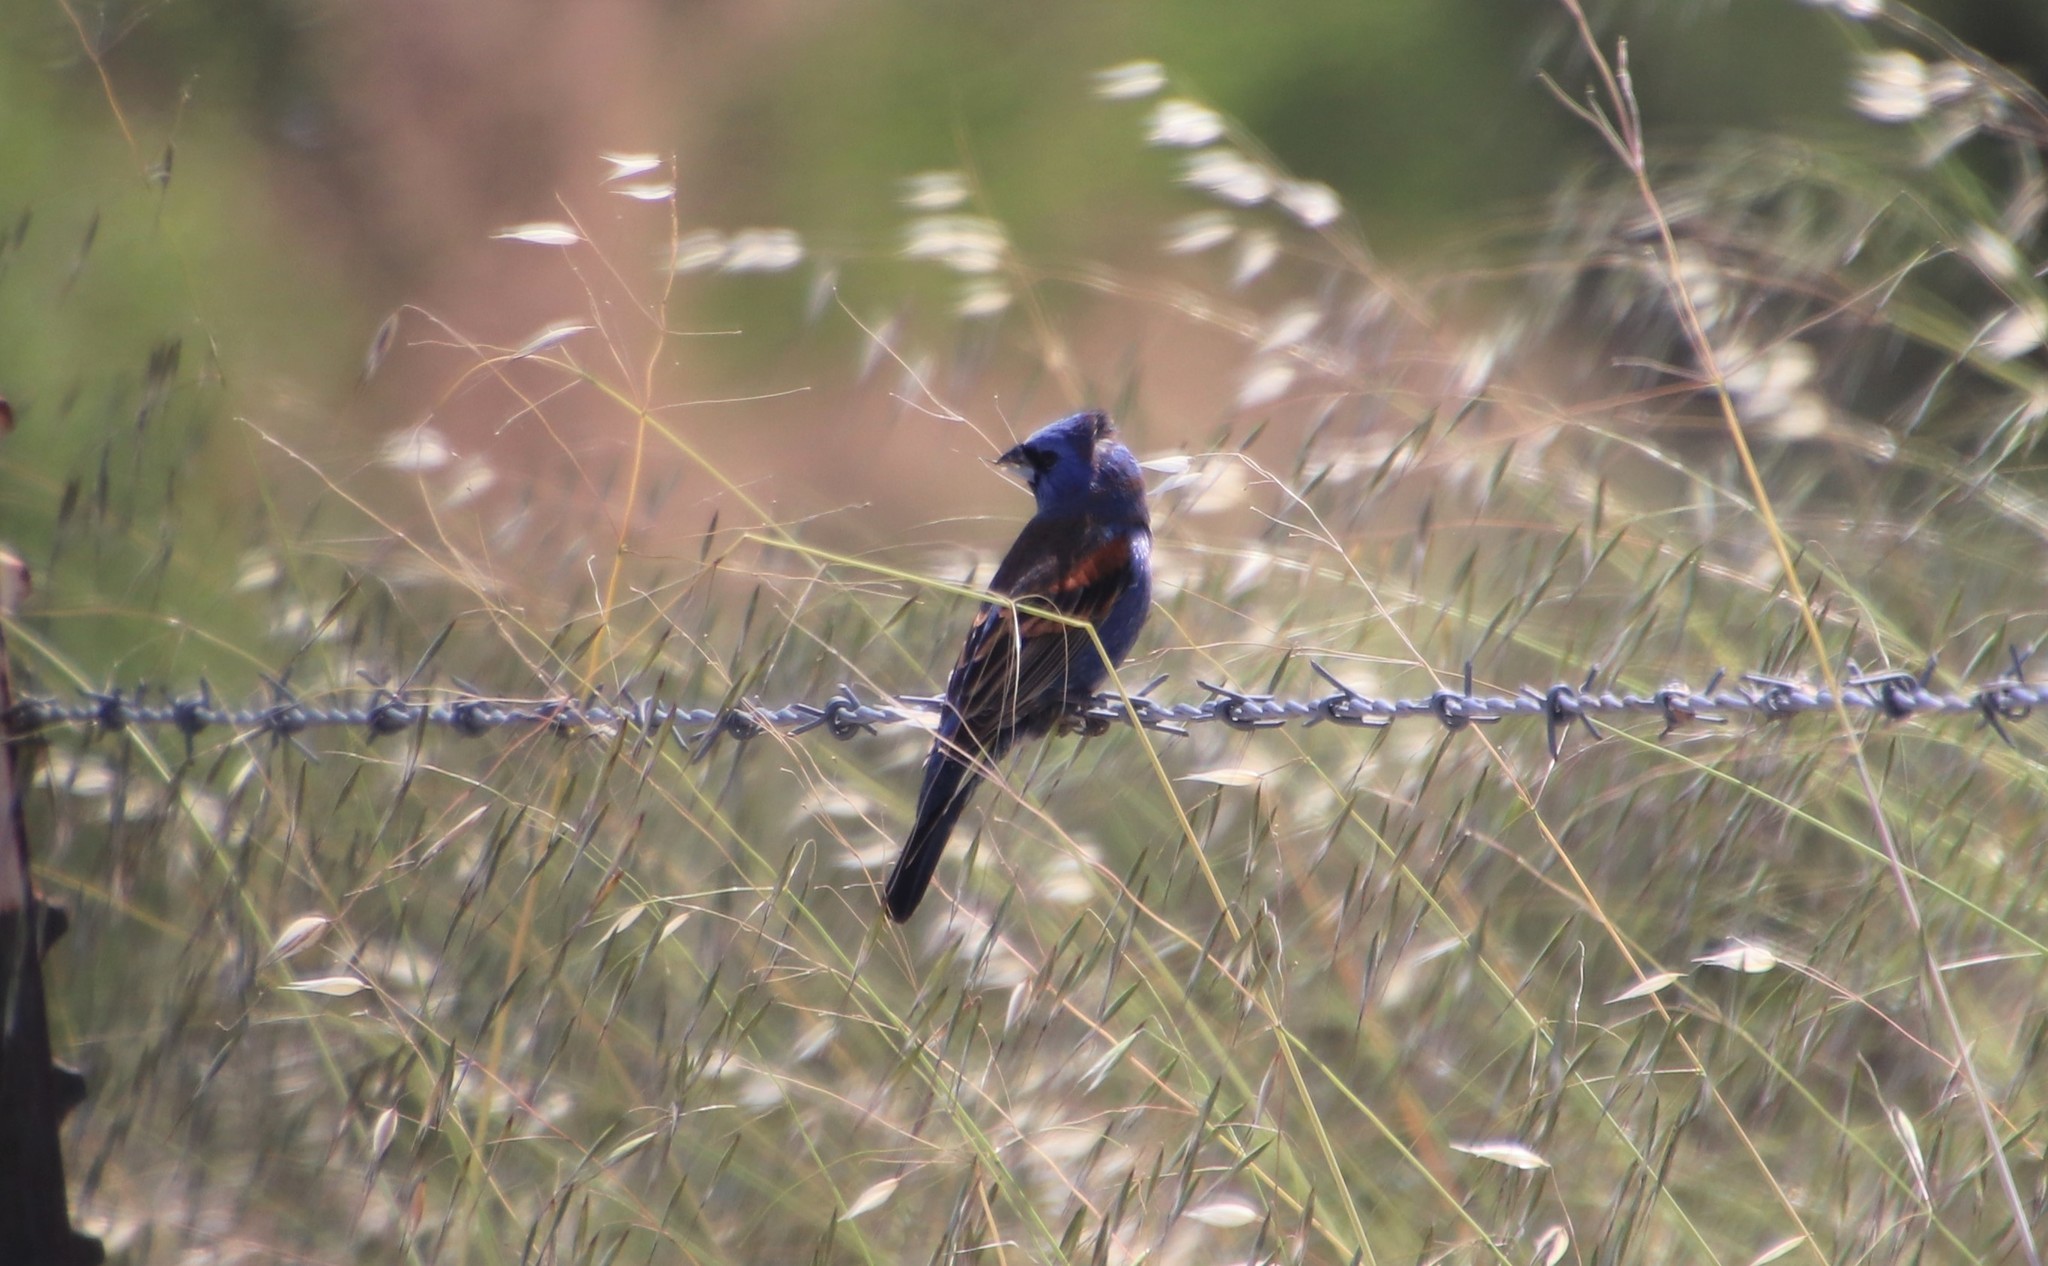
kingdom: Animalia
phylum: Chordata
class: Aves
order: Passeriformes
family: Cardinalidae
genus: Passerina
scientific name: Passerina caerulea
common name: Blue grosbeak
